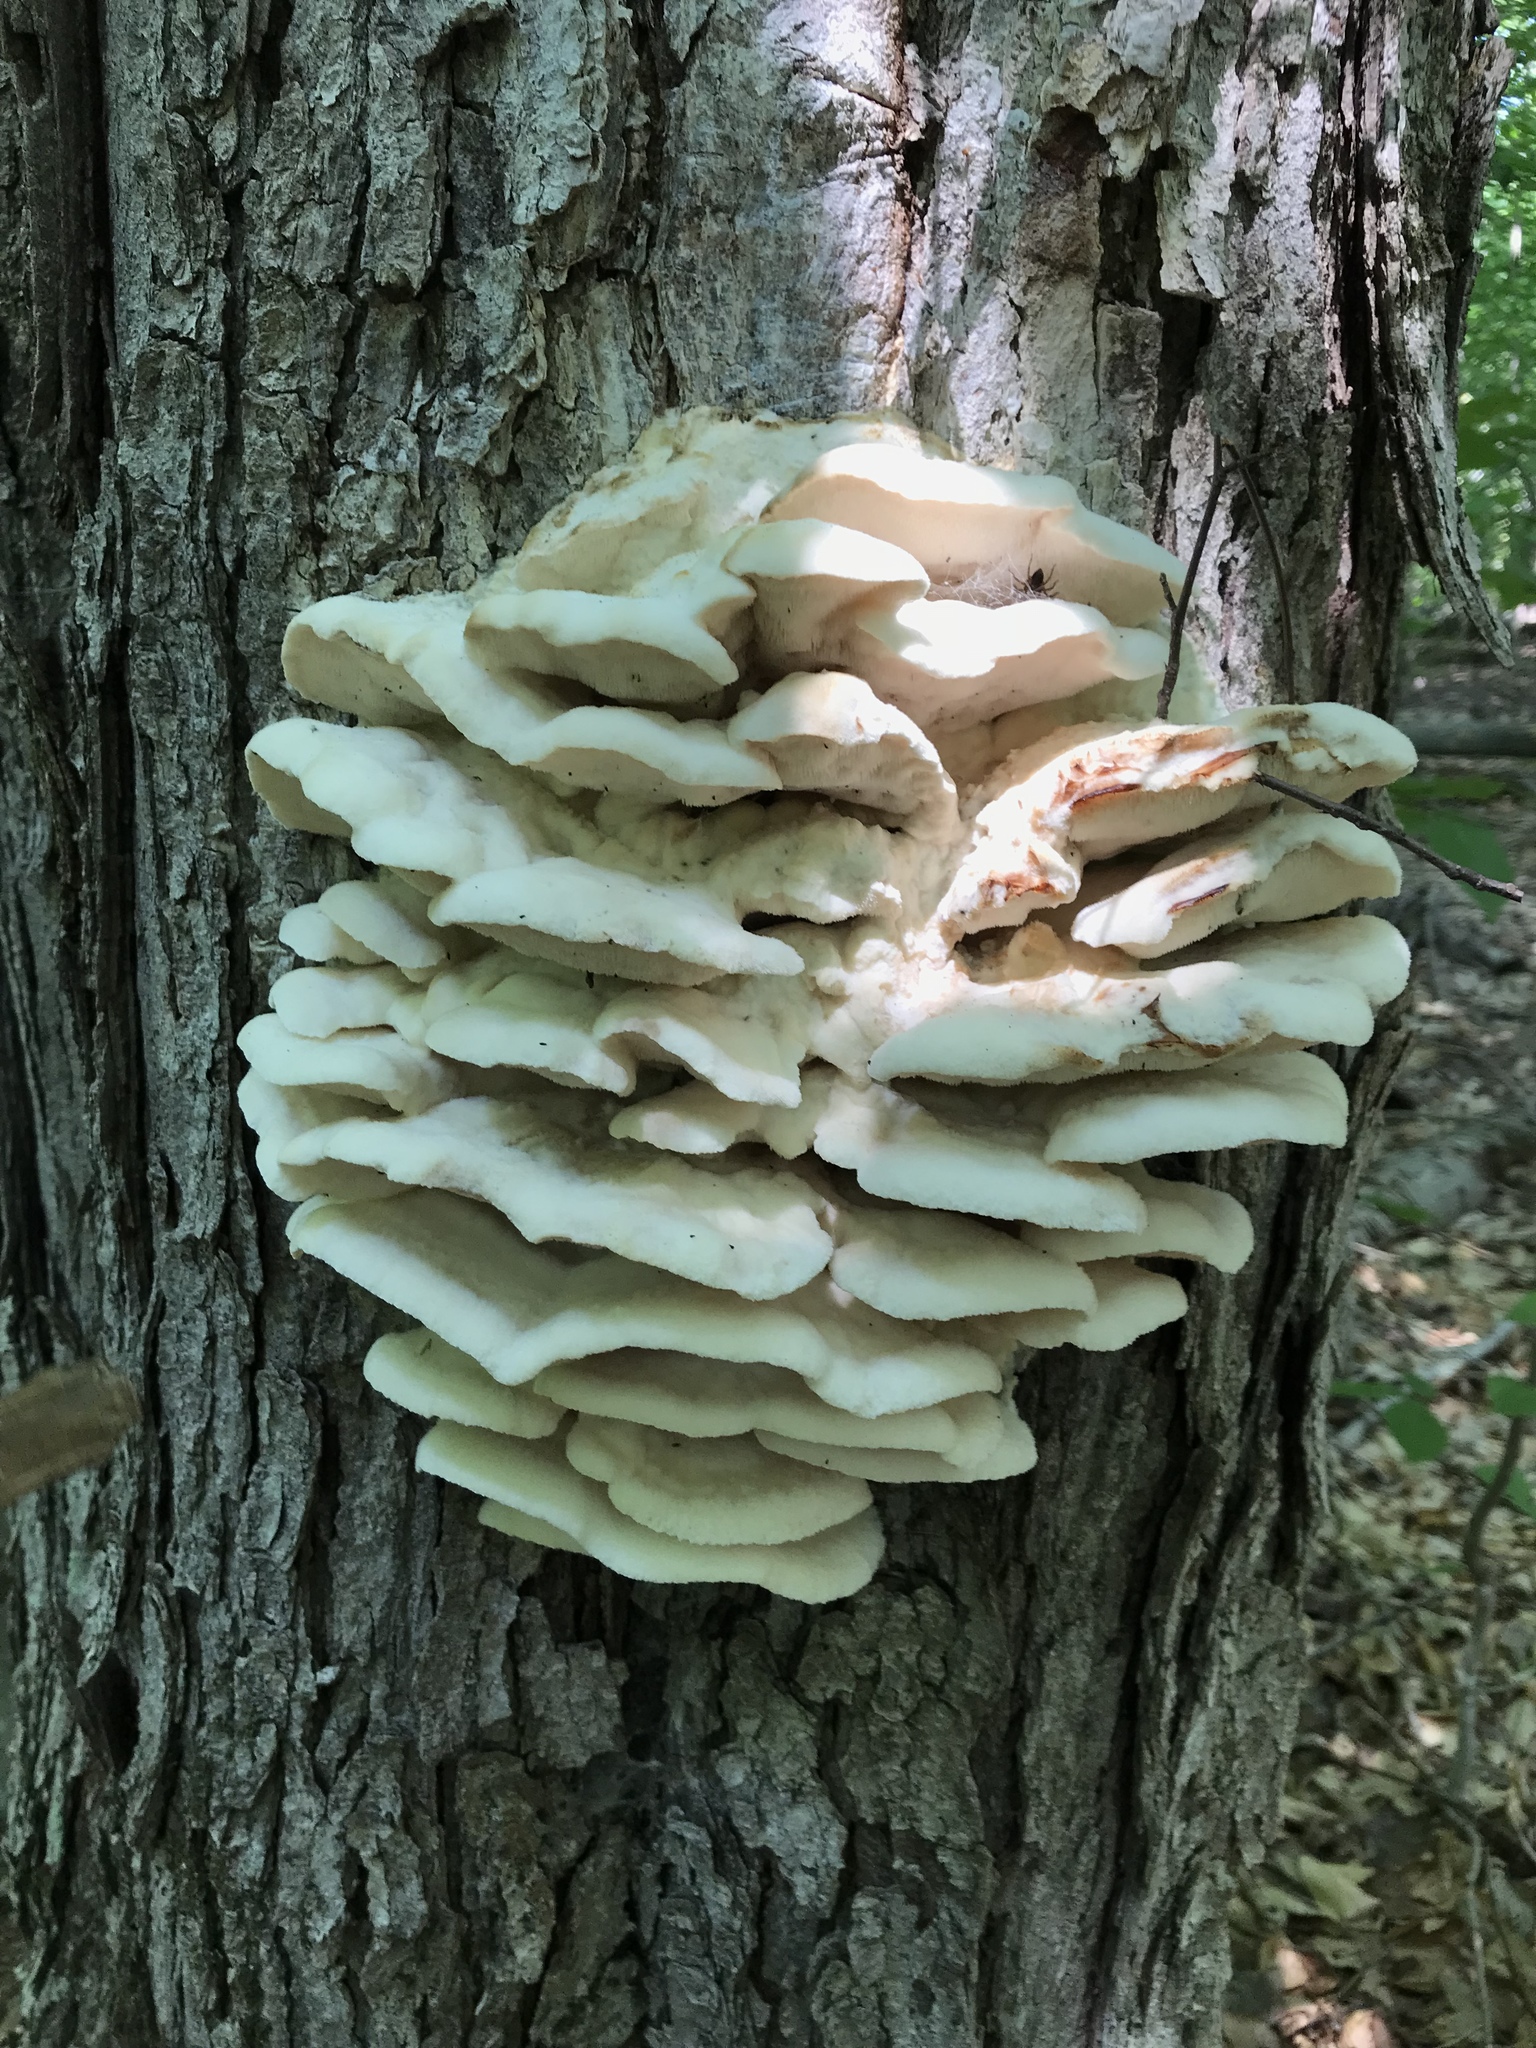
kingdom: Fungi
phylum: Basidiomycota
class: Agaricomycetes
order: Polyporales
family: Meruliaceae
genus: Climacodon
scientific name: Climacodon septentrionalis
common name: Northern tooth
